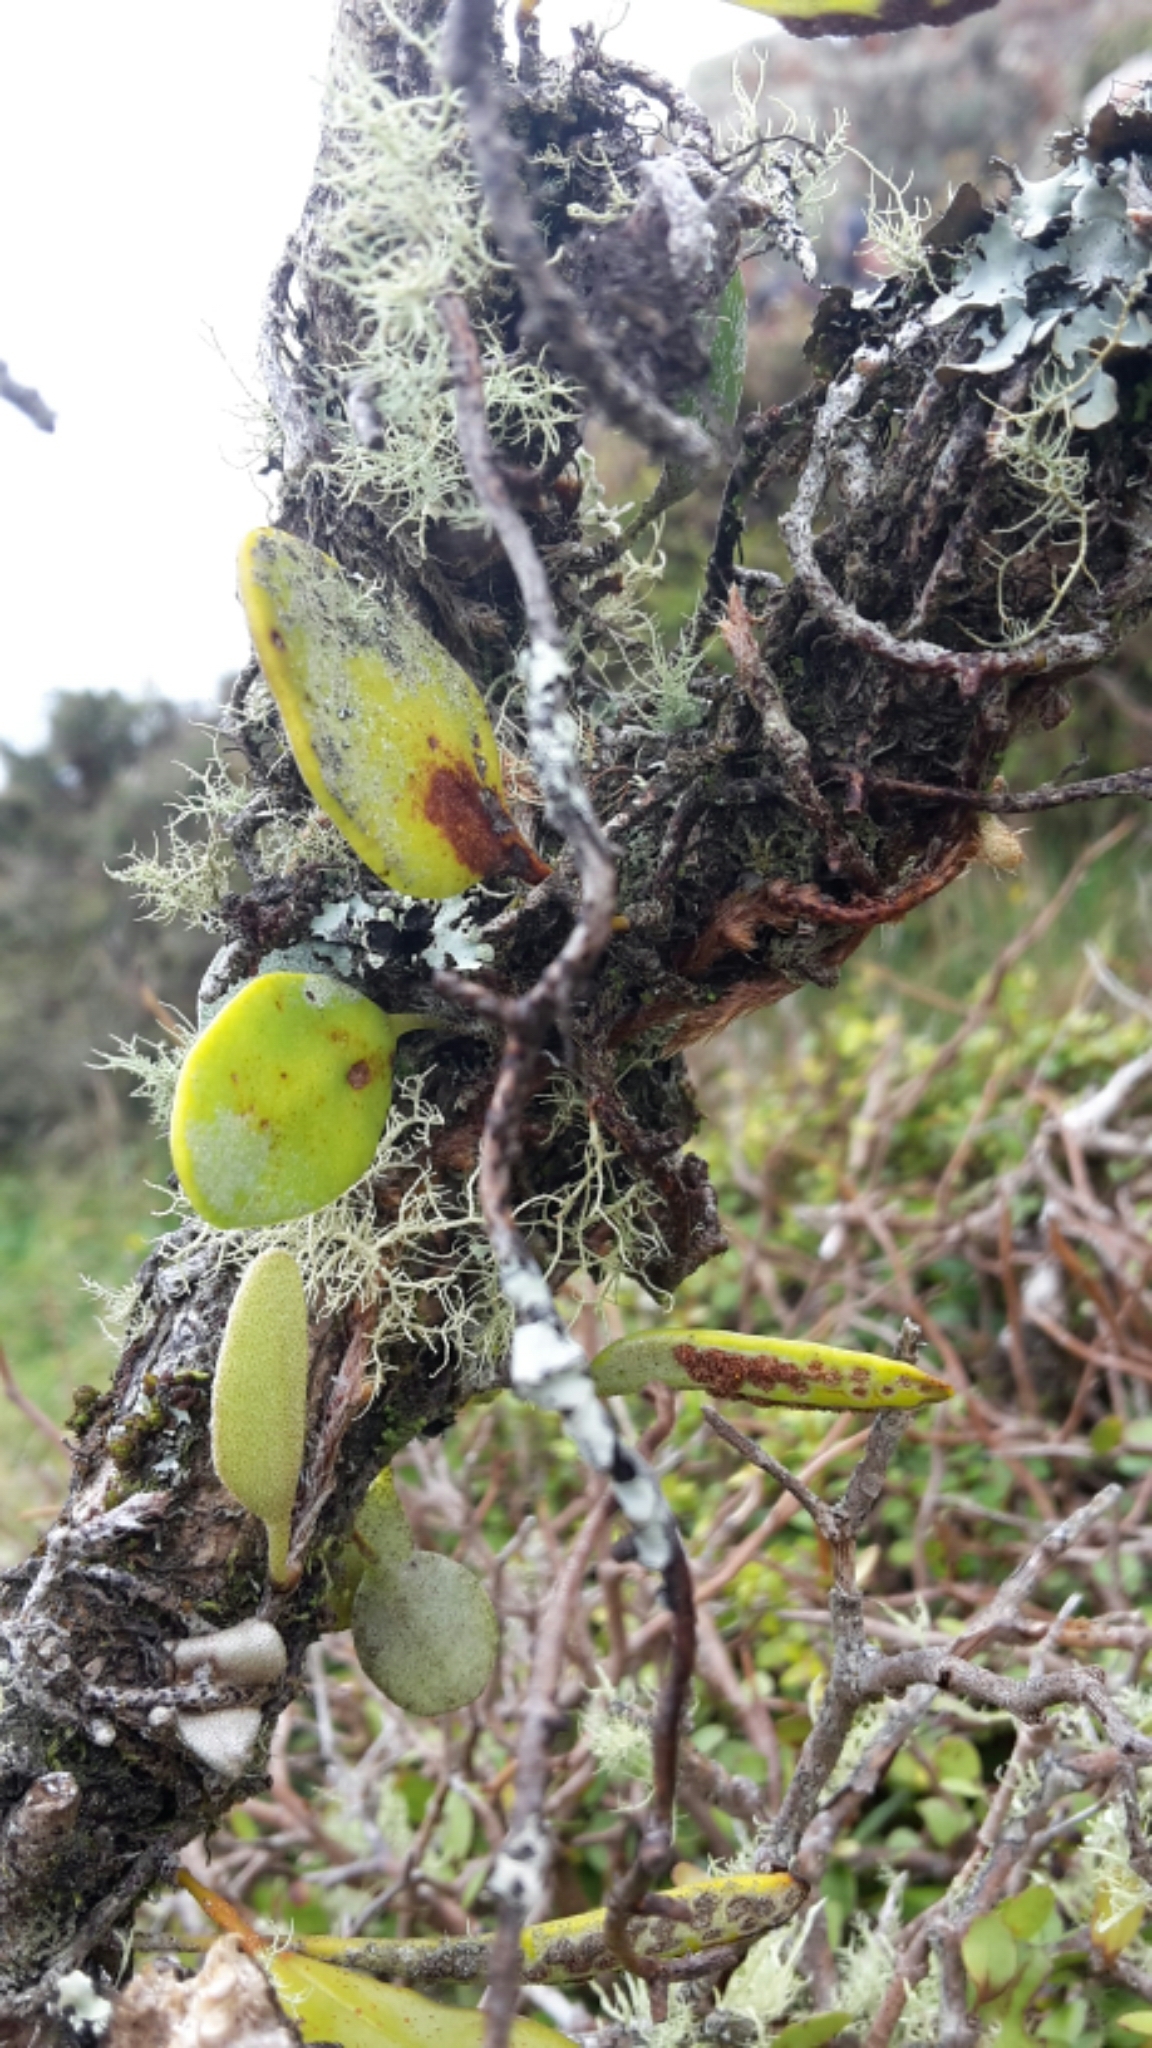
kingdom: Plantae
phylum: Tracheophyta
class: Polypodiopsida
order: Polypodiales
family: Polypodiaceae
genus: Pyrrosia
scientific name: Pyrrosia eleagnifolia
